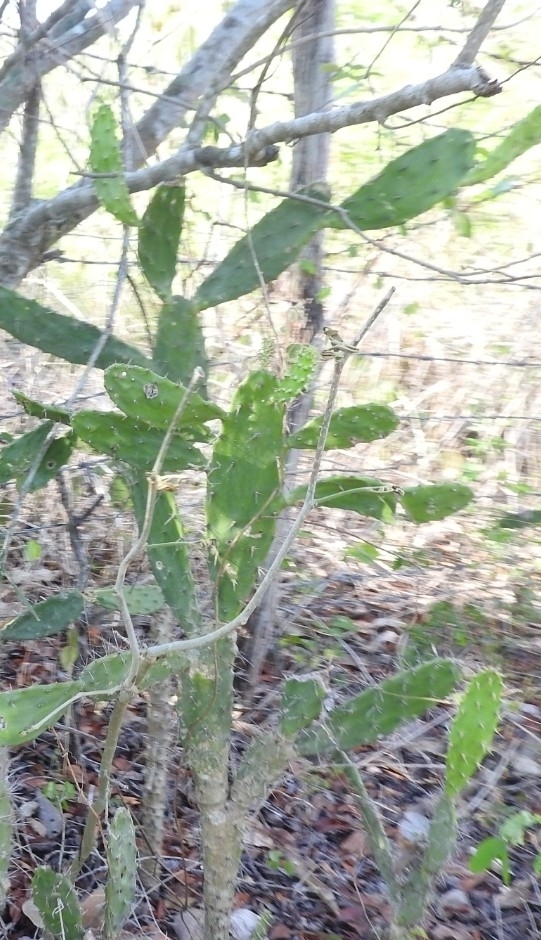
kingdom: Plantae
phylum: Tracheophyta
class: Magnoliopsida
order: Caryophyllales
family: Cactaceae
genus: Opuntia
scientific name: Opuntia inaperta
